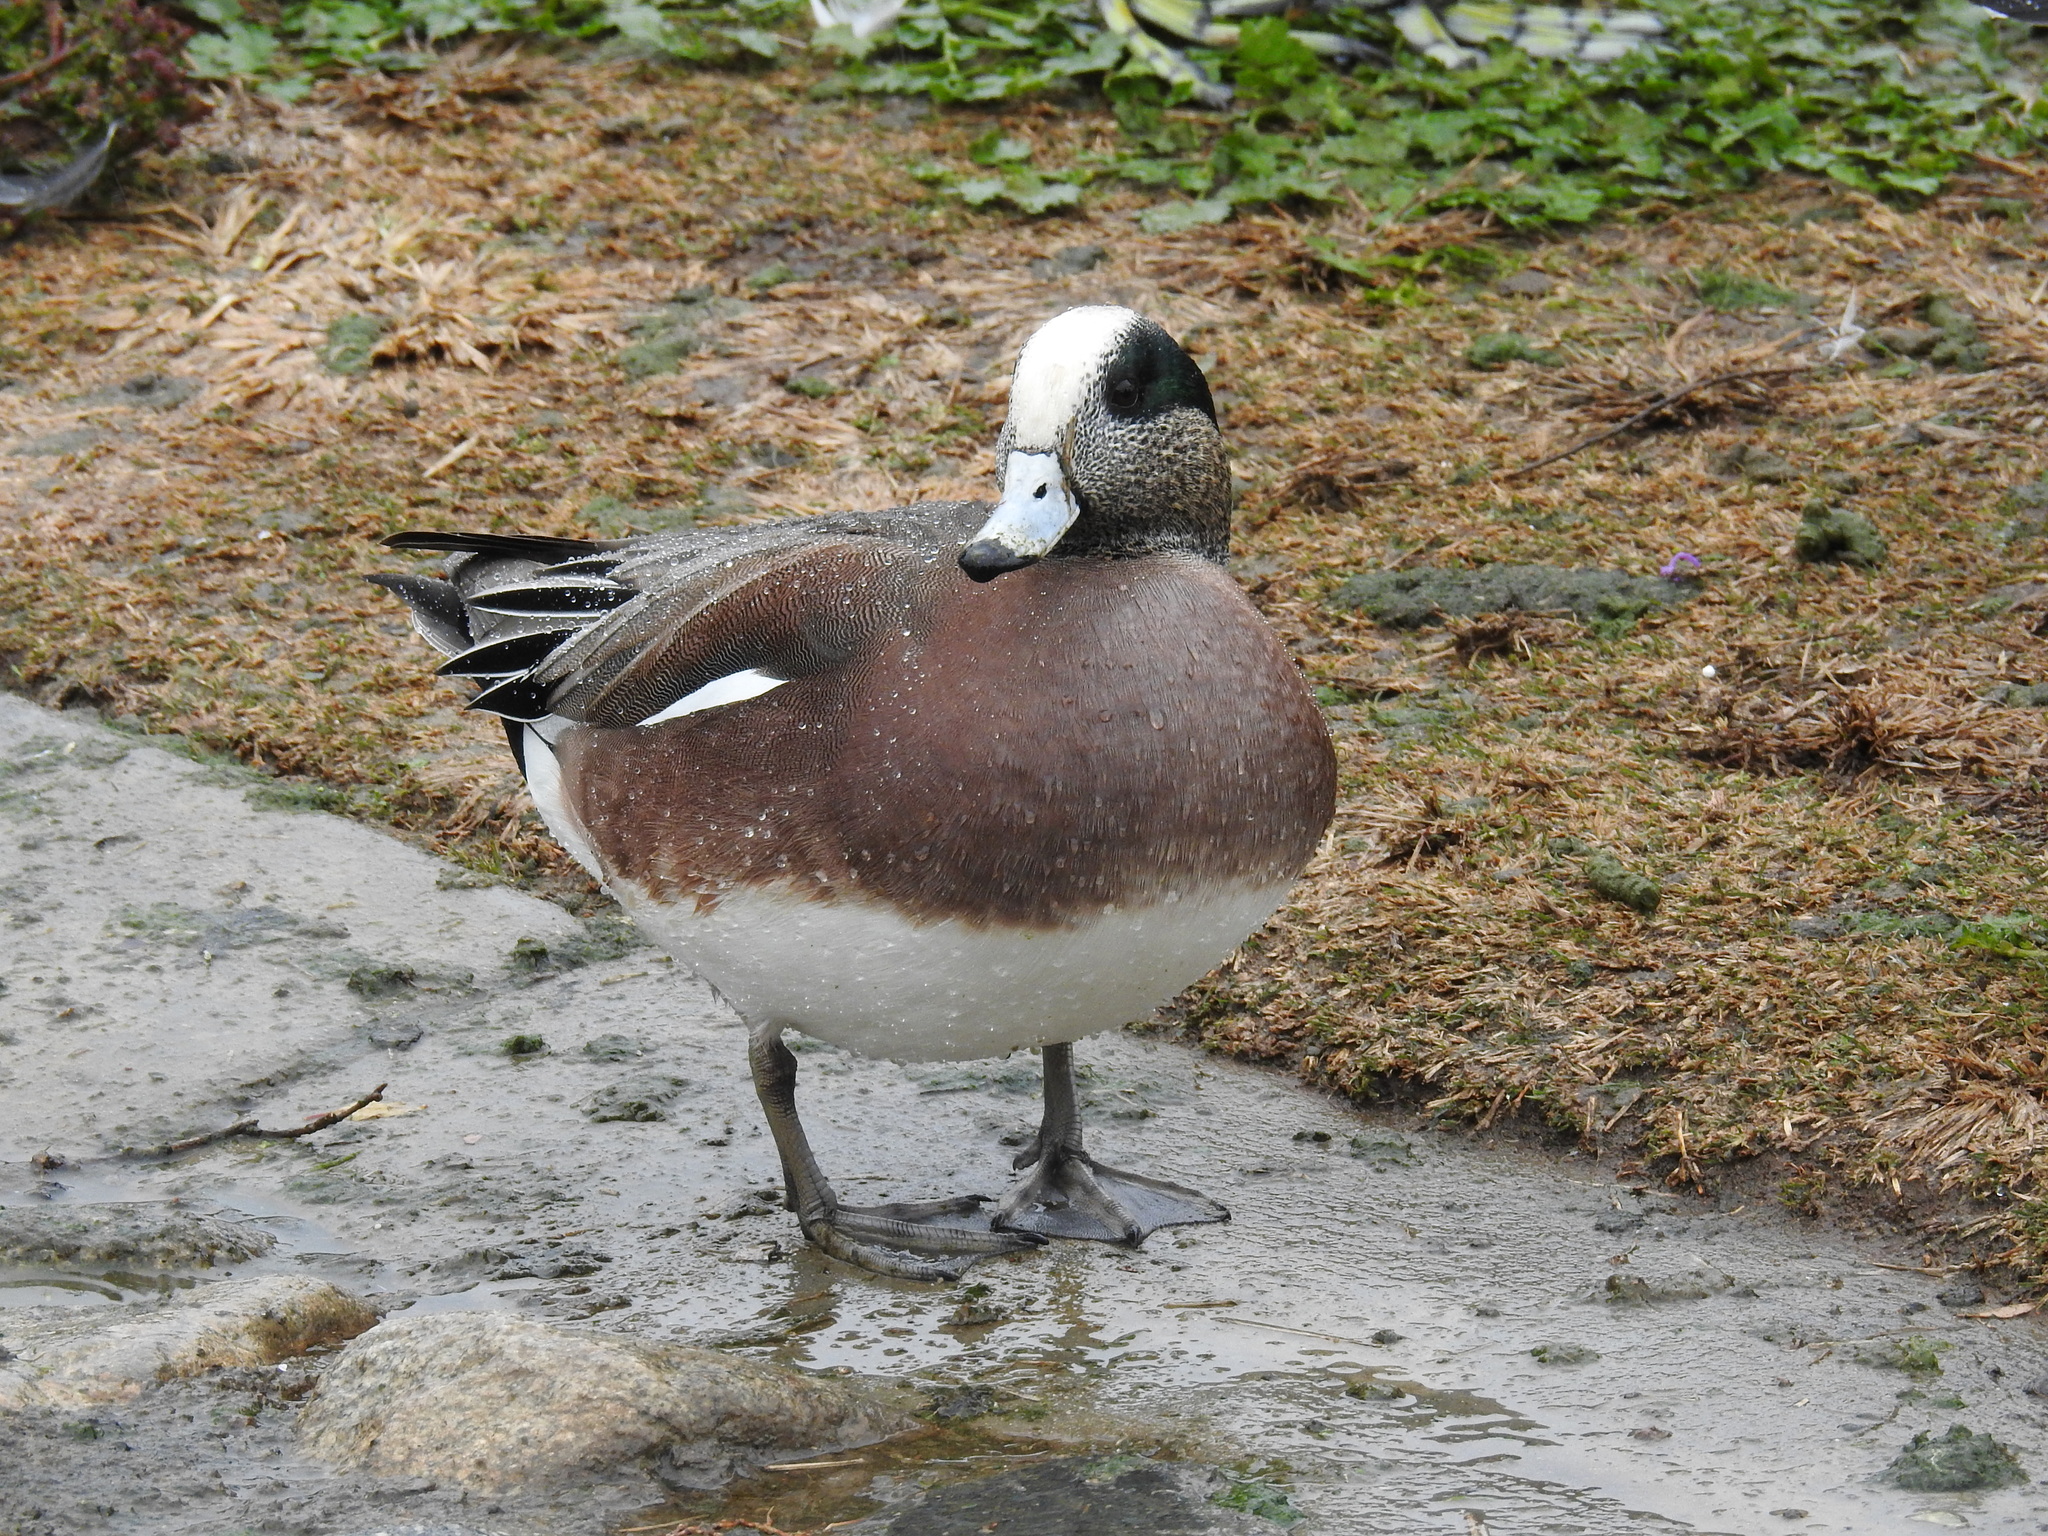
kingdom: Animalia
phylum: Chordata
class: Aves
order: Anseriformes
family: Anatidae
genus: Mareca
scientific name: Mareca americana
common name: American wigeon
